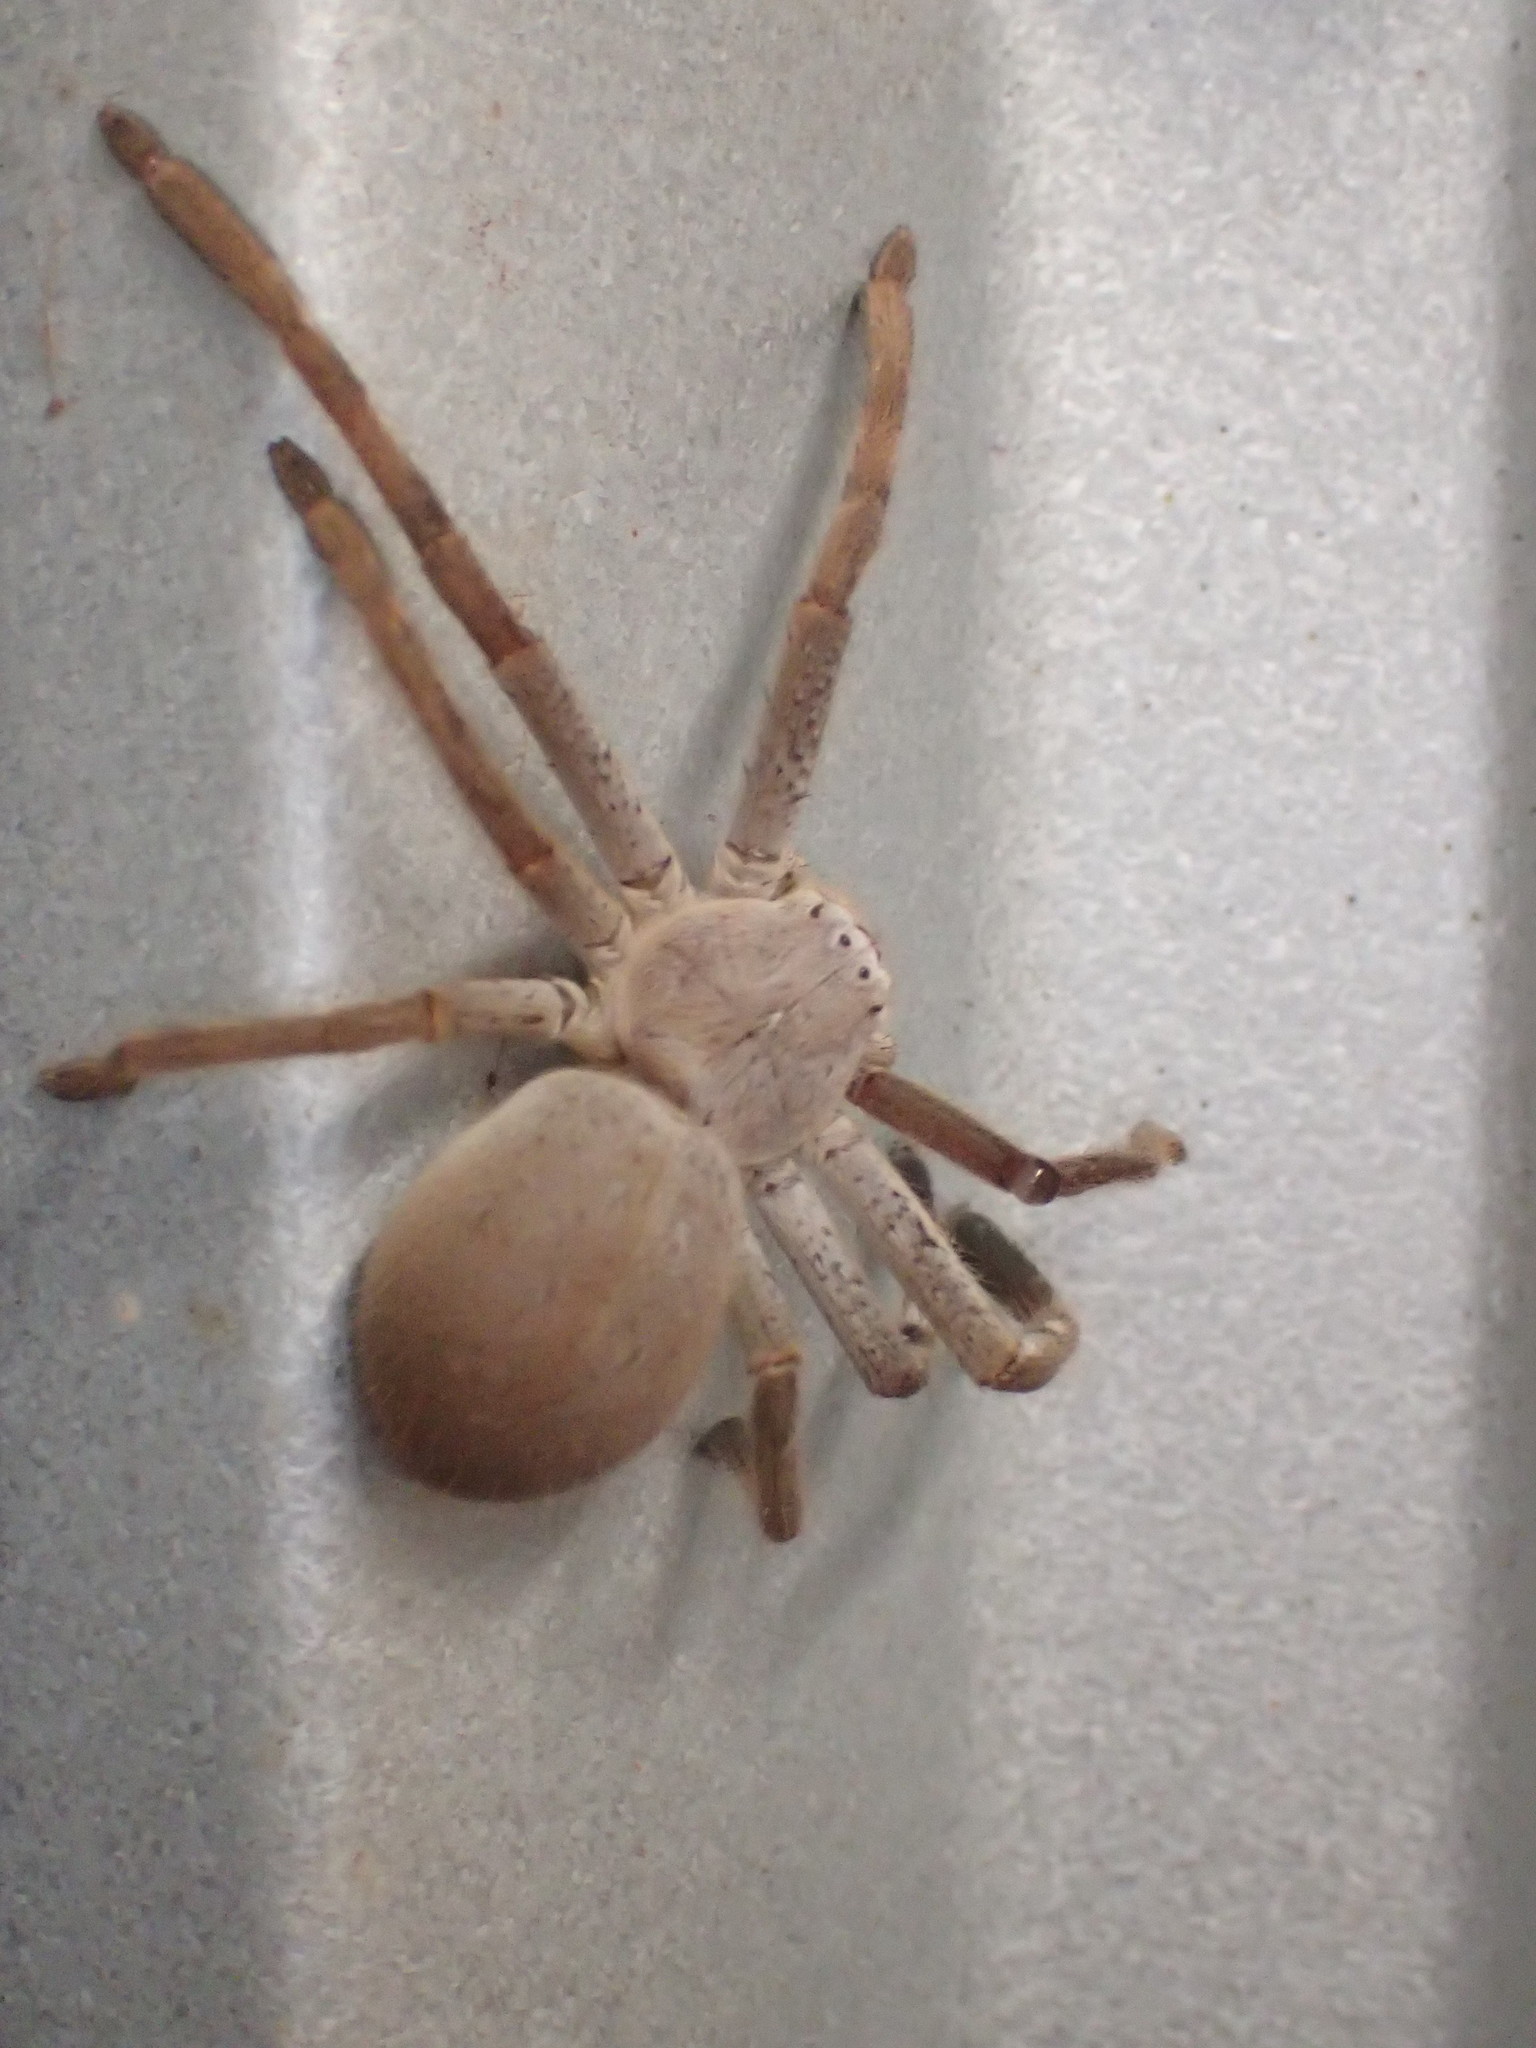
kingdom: Animalia
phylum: Arthropoda
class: Arachnida
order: Araneae
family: Sparassidae
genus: Isopedella
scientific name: Isopedella inola
